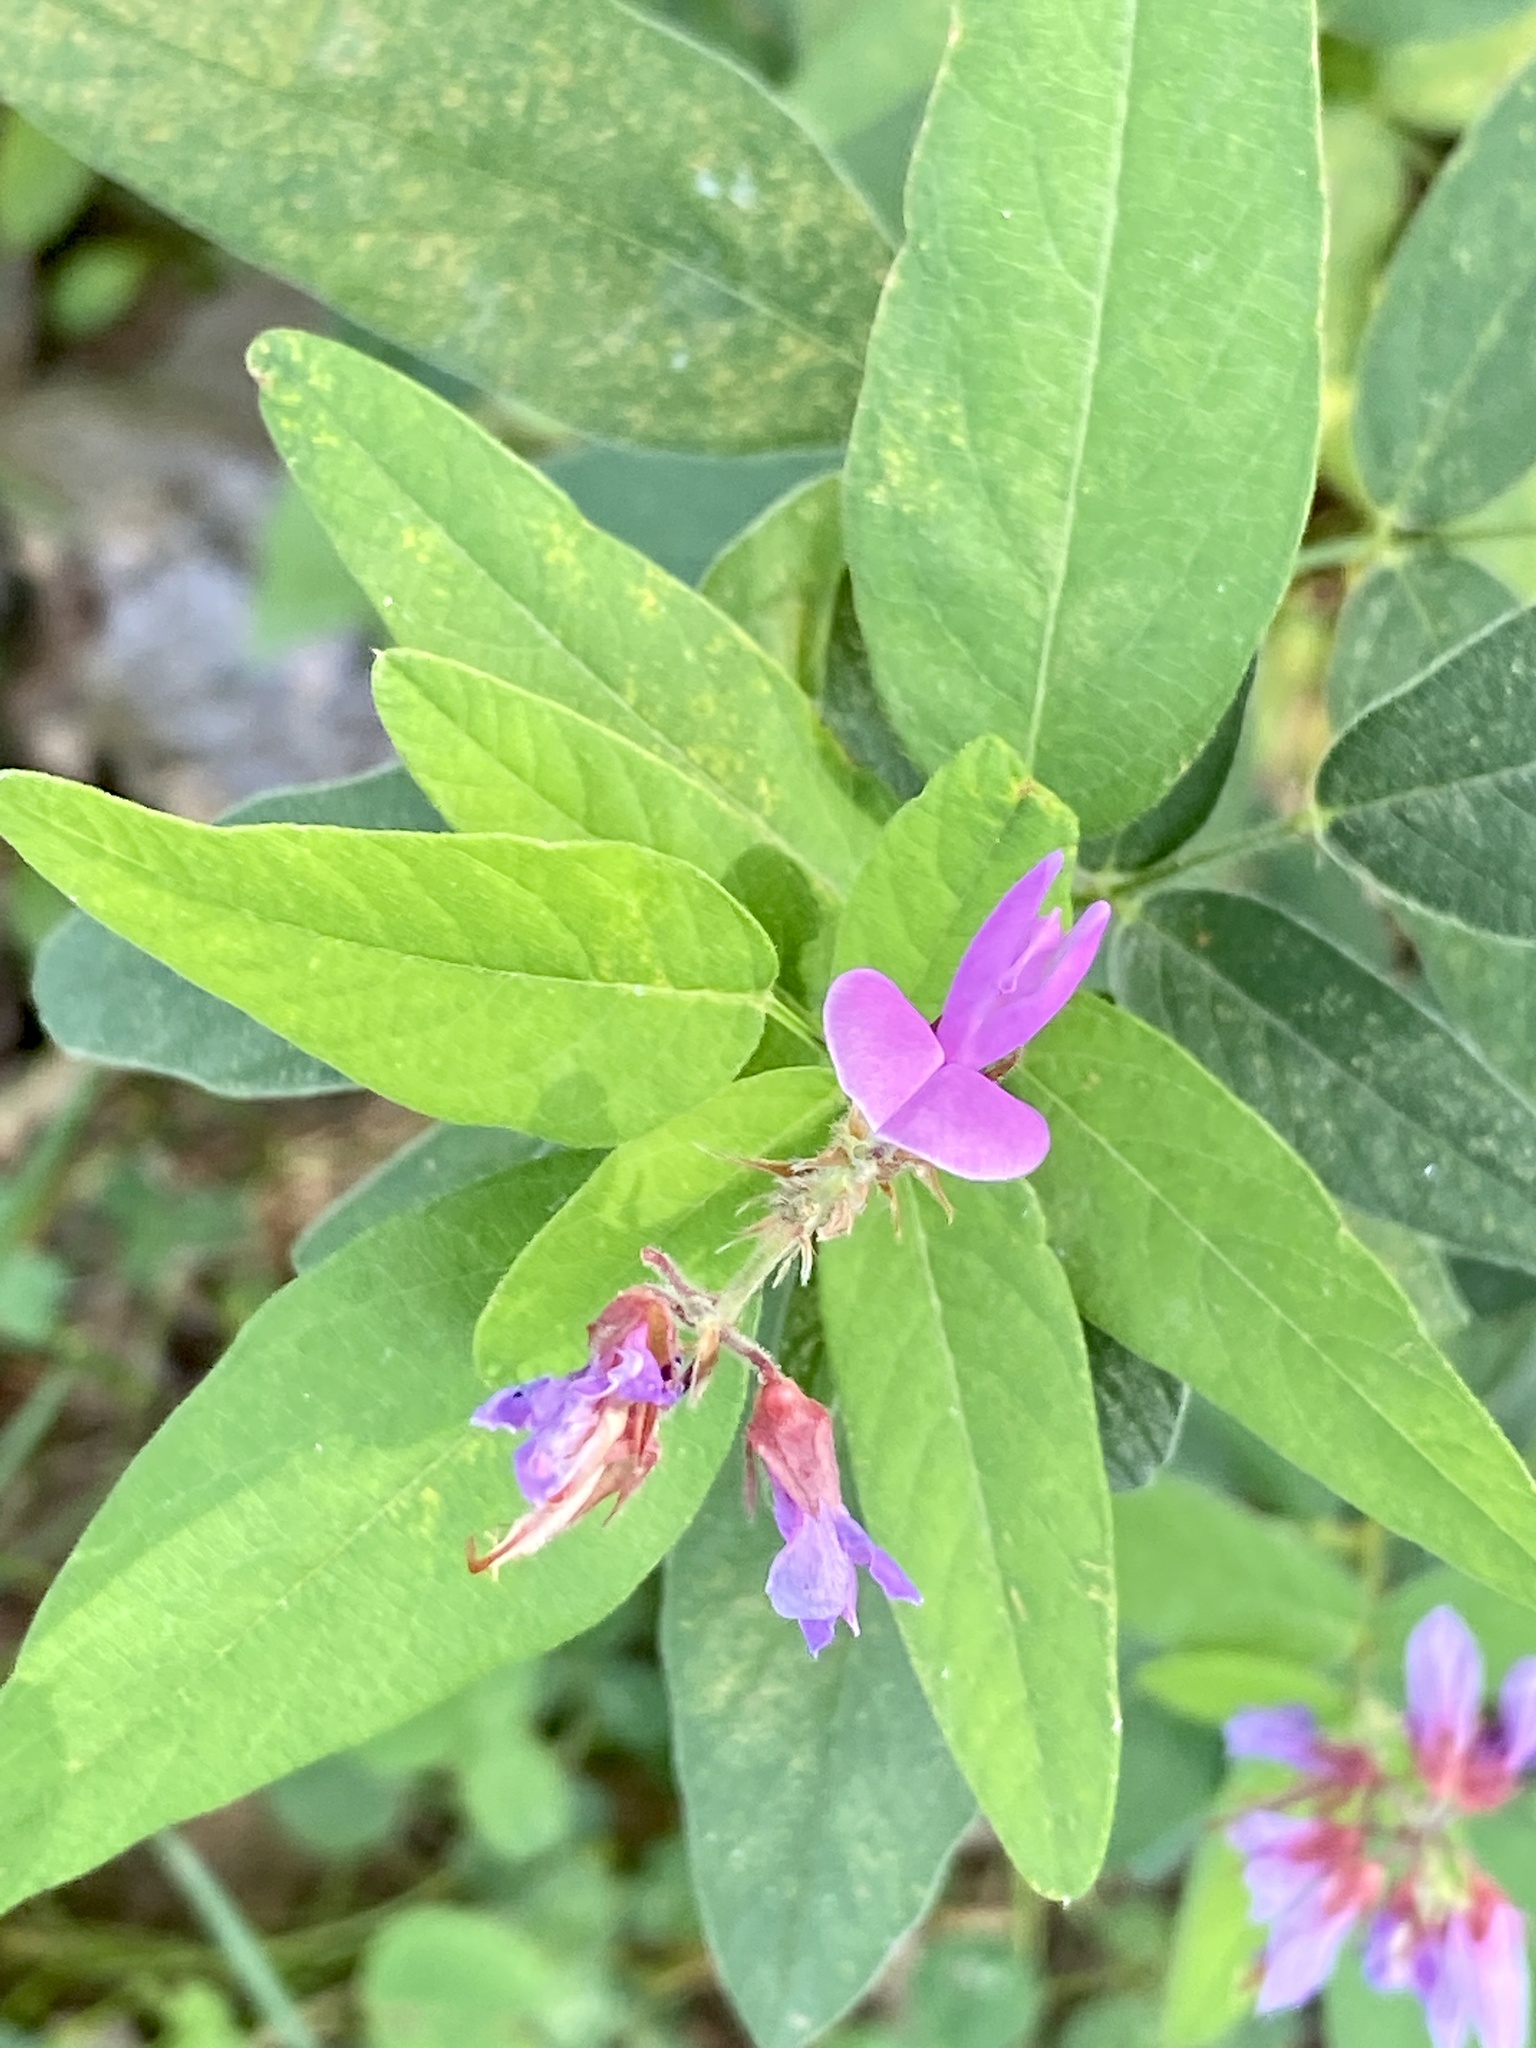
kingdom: Plantae
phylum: Tracheophyta
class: Magnoliopsida
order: Fabales
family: Fabaceae
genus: Desmodium
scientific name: Desmodium canadense
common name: Canada tick-trefoil
